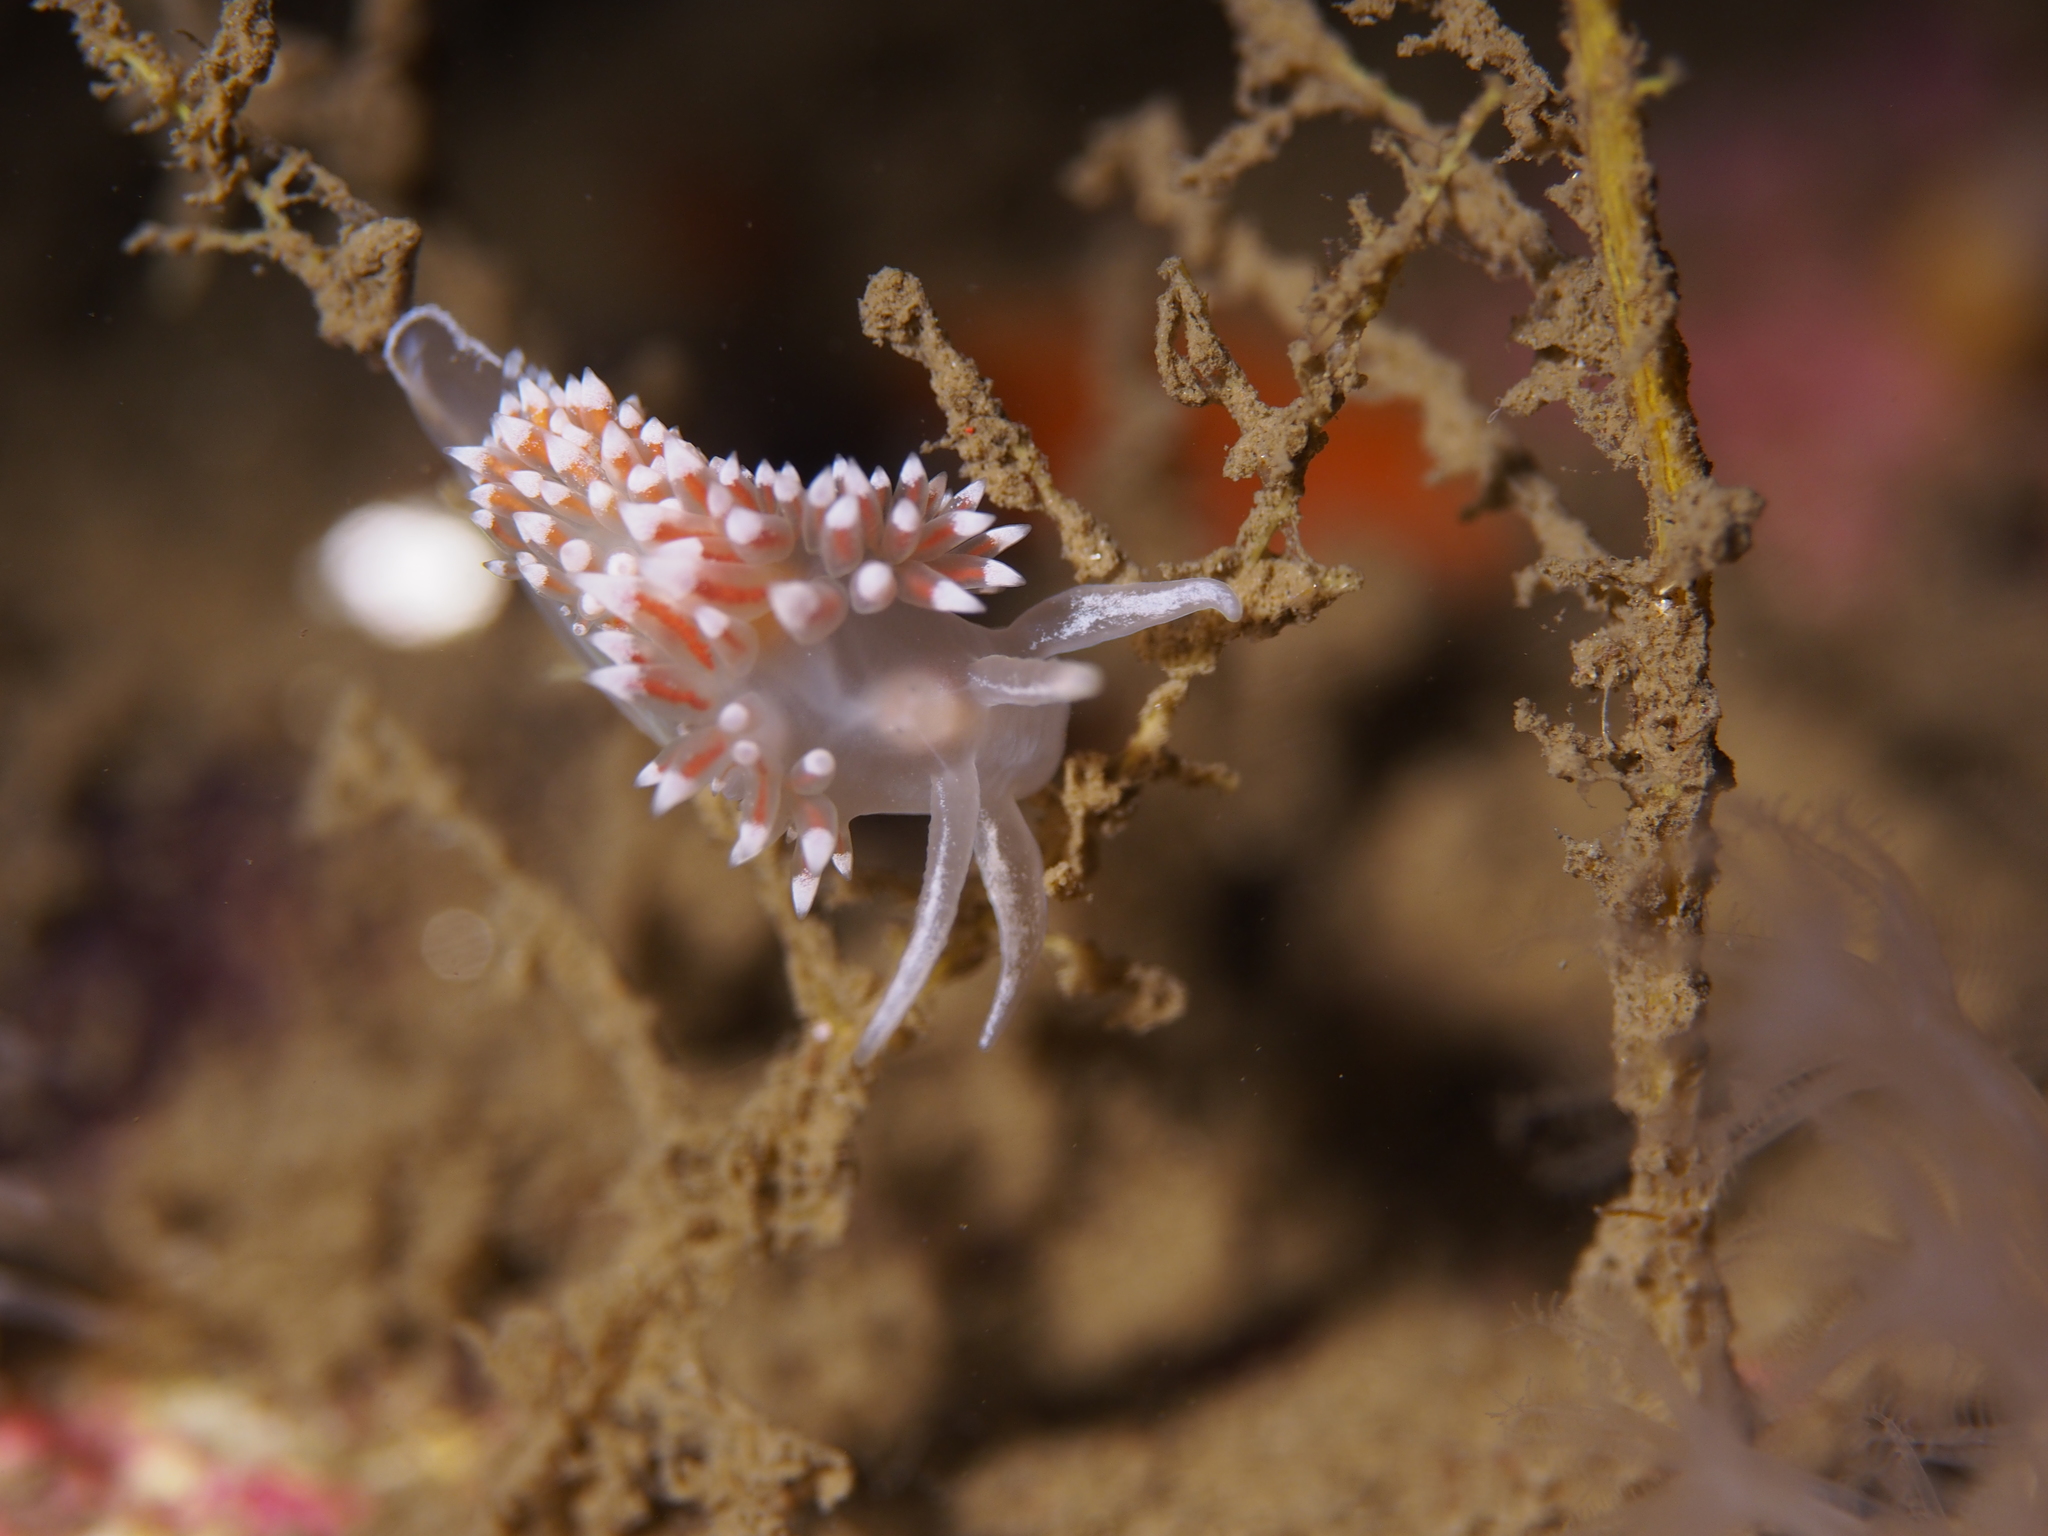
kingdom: Animalia
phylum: Mollusca
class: Gastropoda
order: Nudibranchia
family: Coryphellidae
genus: Coryphella
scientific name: Coryphella verrucosa
